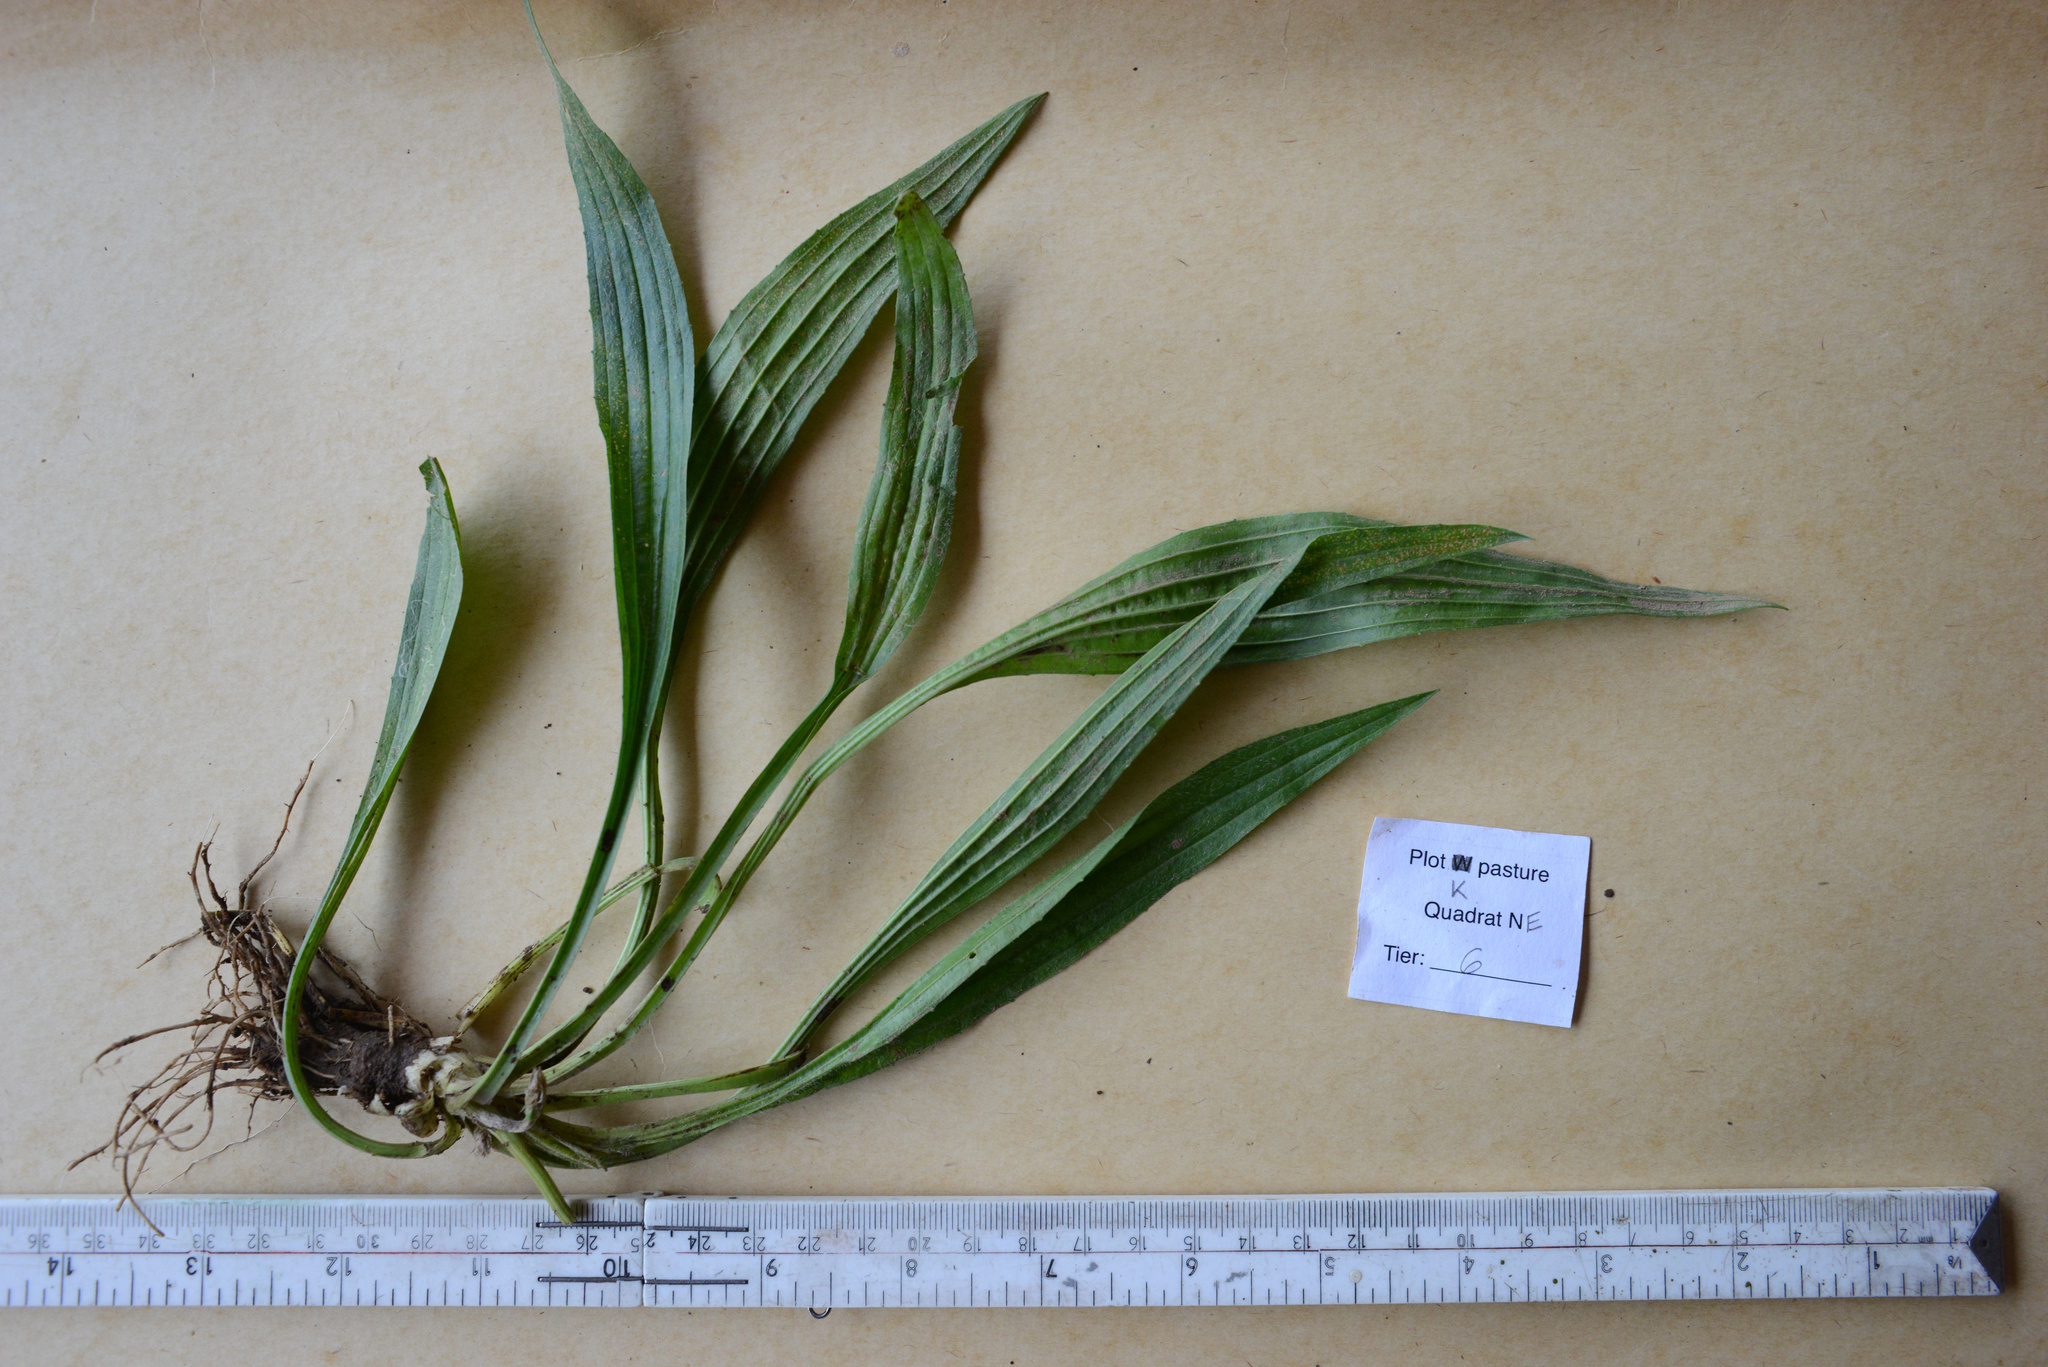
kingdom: Plantae
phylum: Tracheophyta
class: Magnoliopsida
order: Lamiales
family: Plantaginaceae
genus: Plantago
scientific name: Plantago lanceolata
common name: Ribwort plantain
